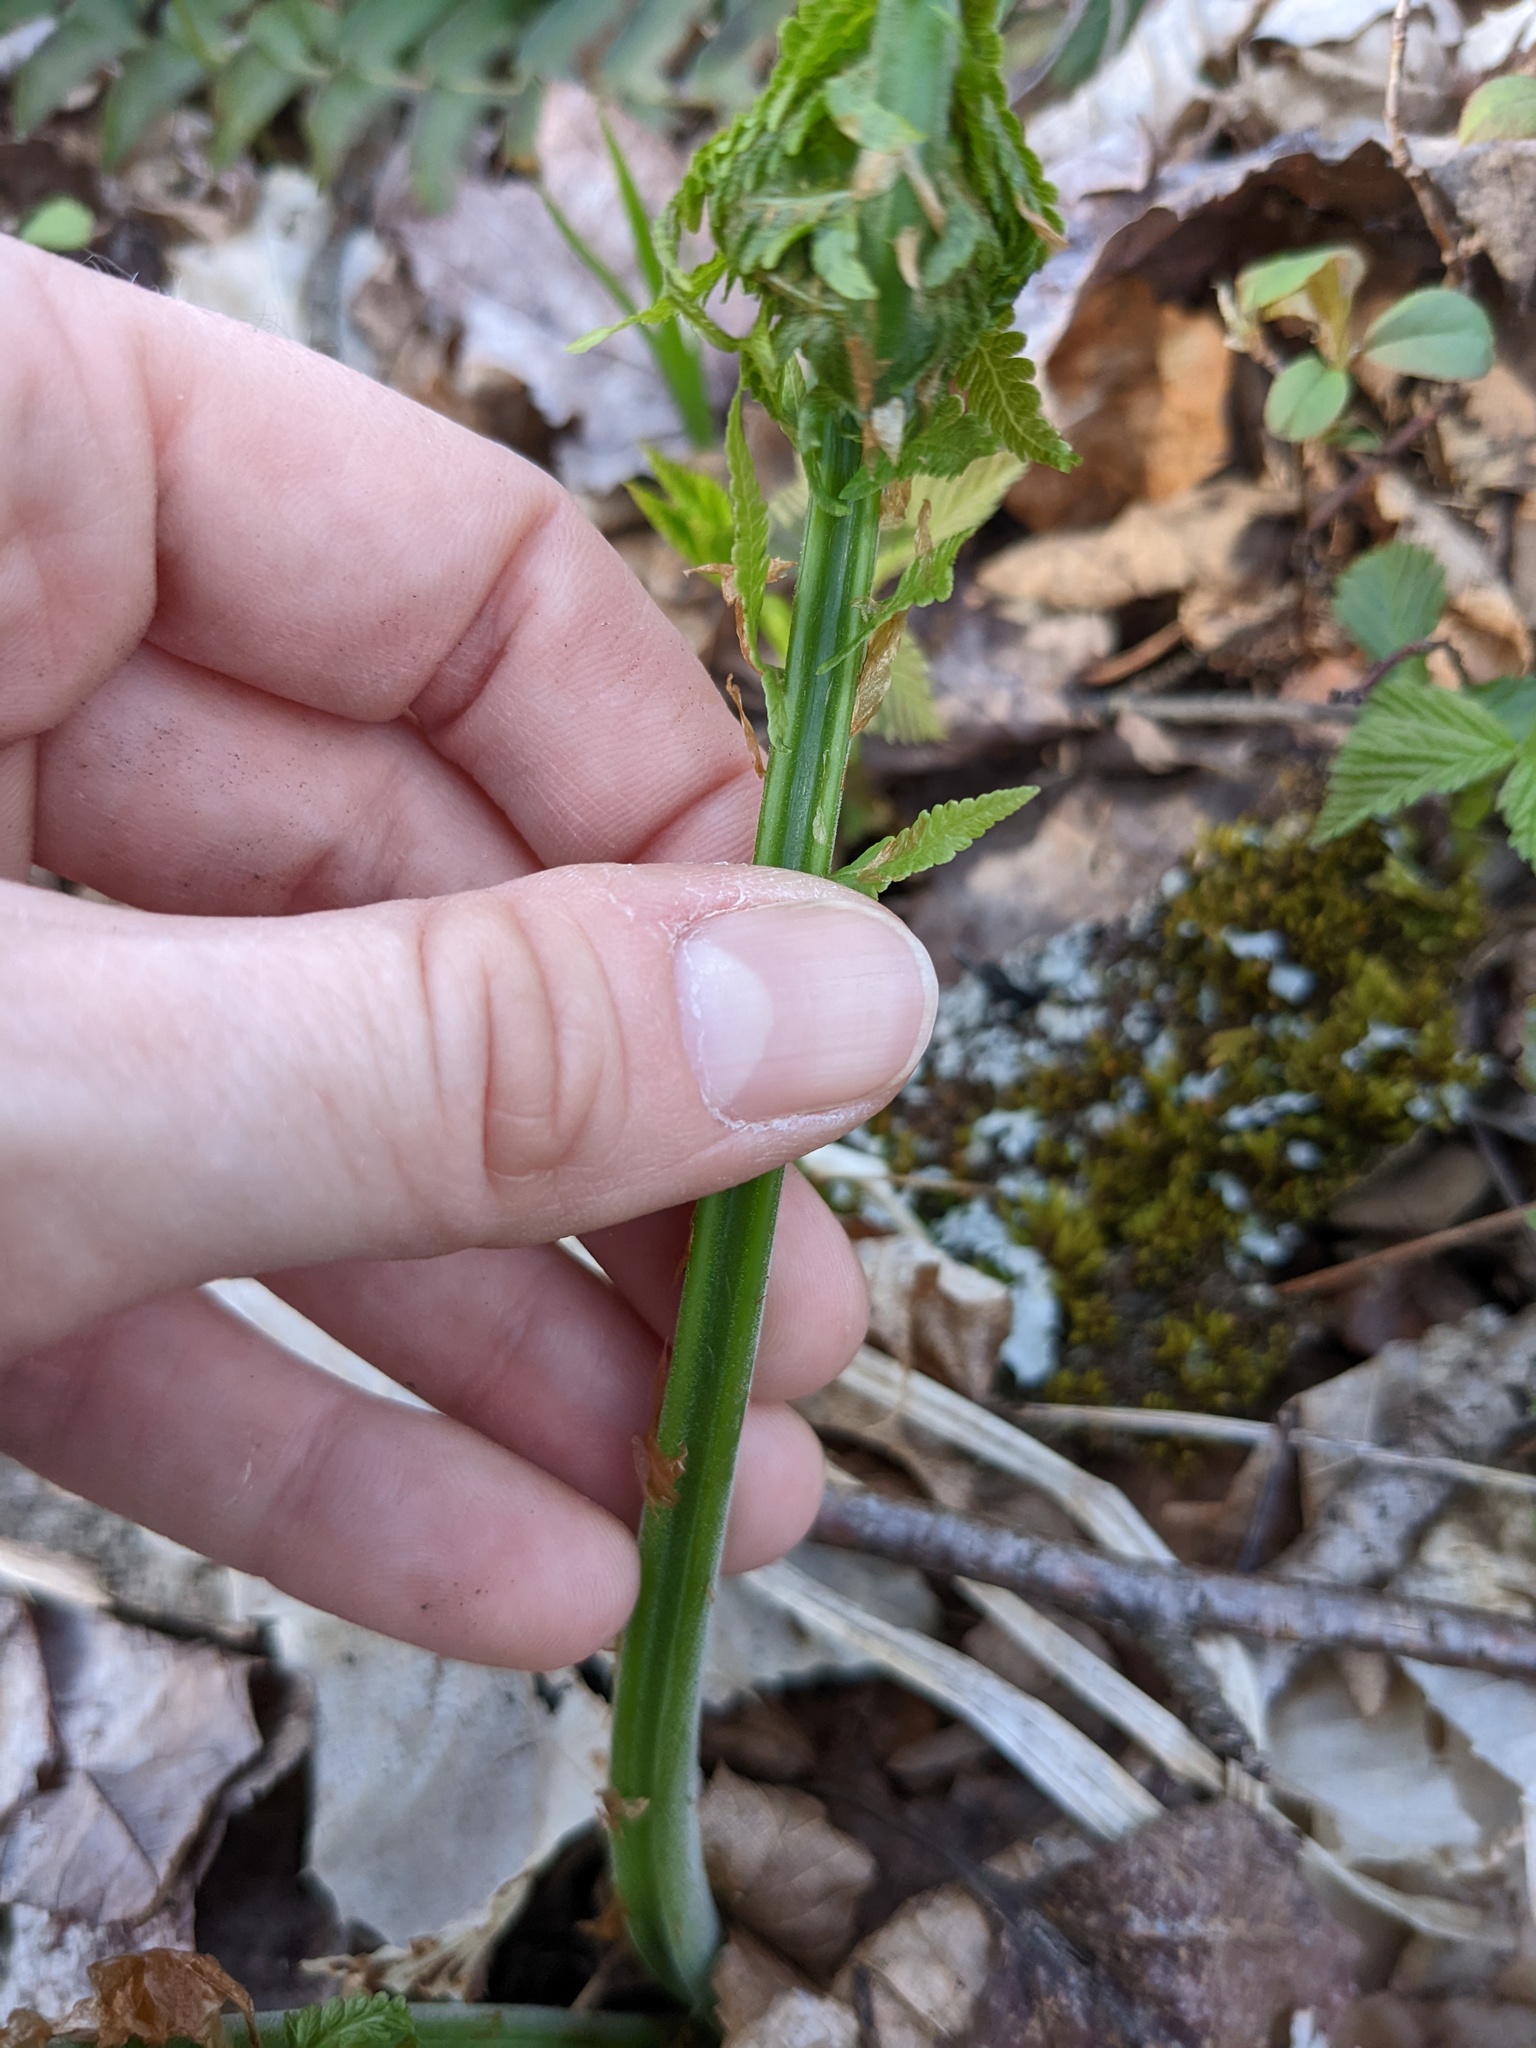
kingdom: Plantae
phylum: Tracheophyta
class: Polypodiopsida
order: Polypodiales
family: Onocleaceae
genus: Matteuccia
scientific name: Matteuccia struthiopteris
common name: Ostrich fern
